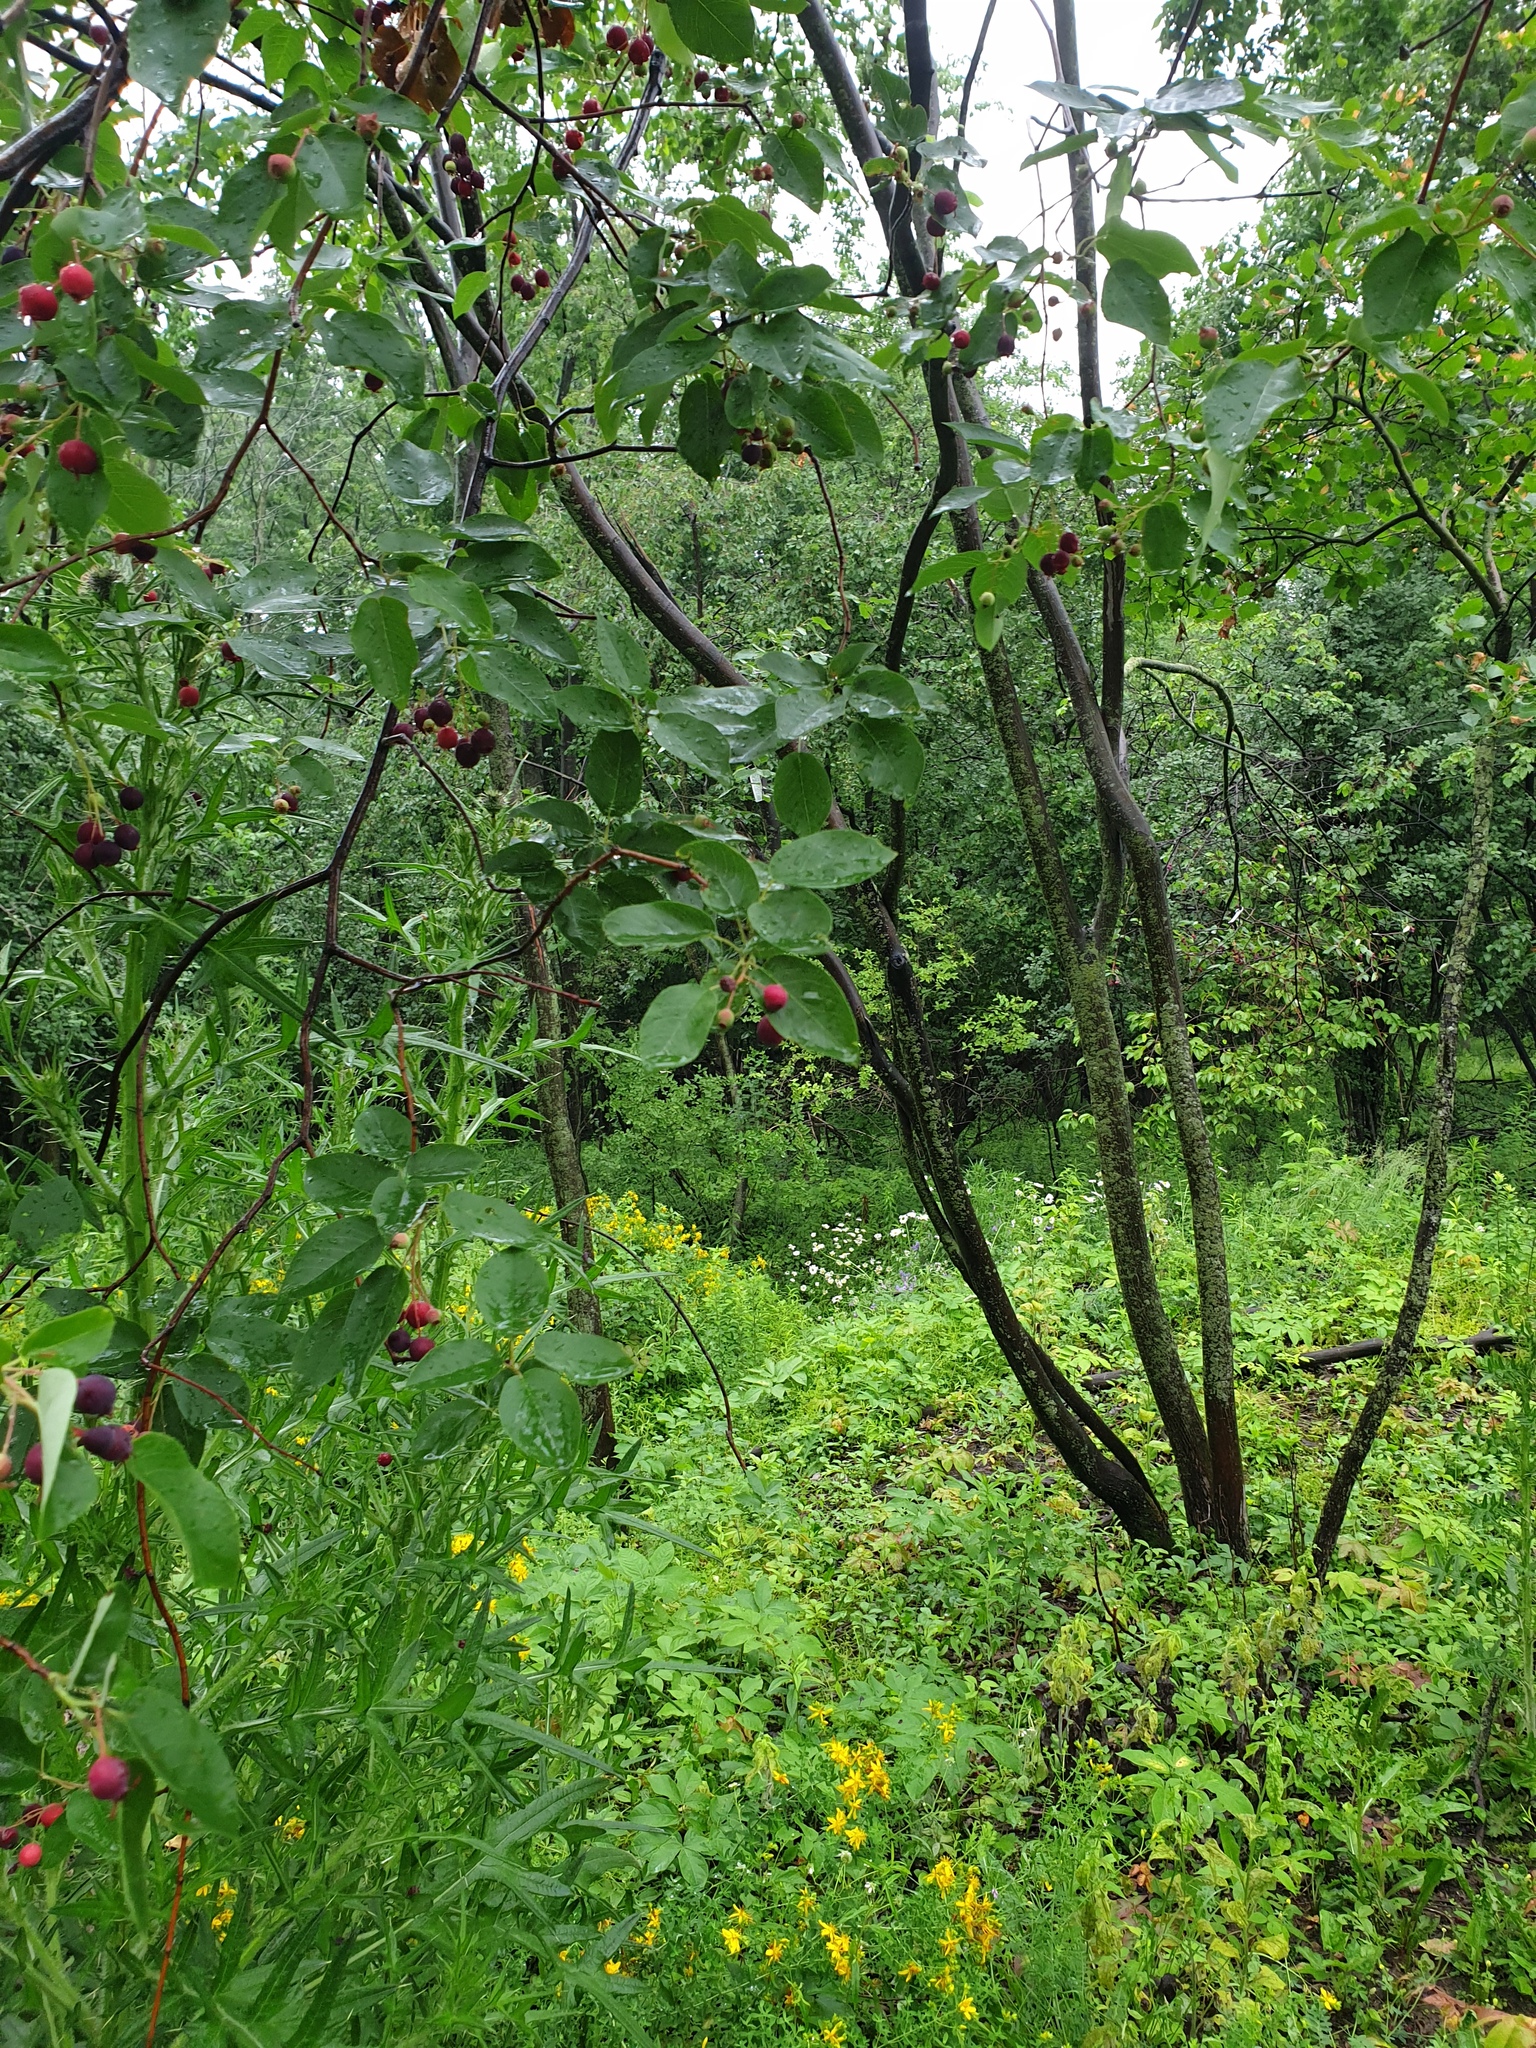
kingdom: Plantae
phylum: Tracheophyta
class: Magnoliopsida
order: Rosales
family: Rosaceae
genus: Amelanchier
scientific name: Amelanchier laevis
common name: Allegheny serviceberry
